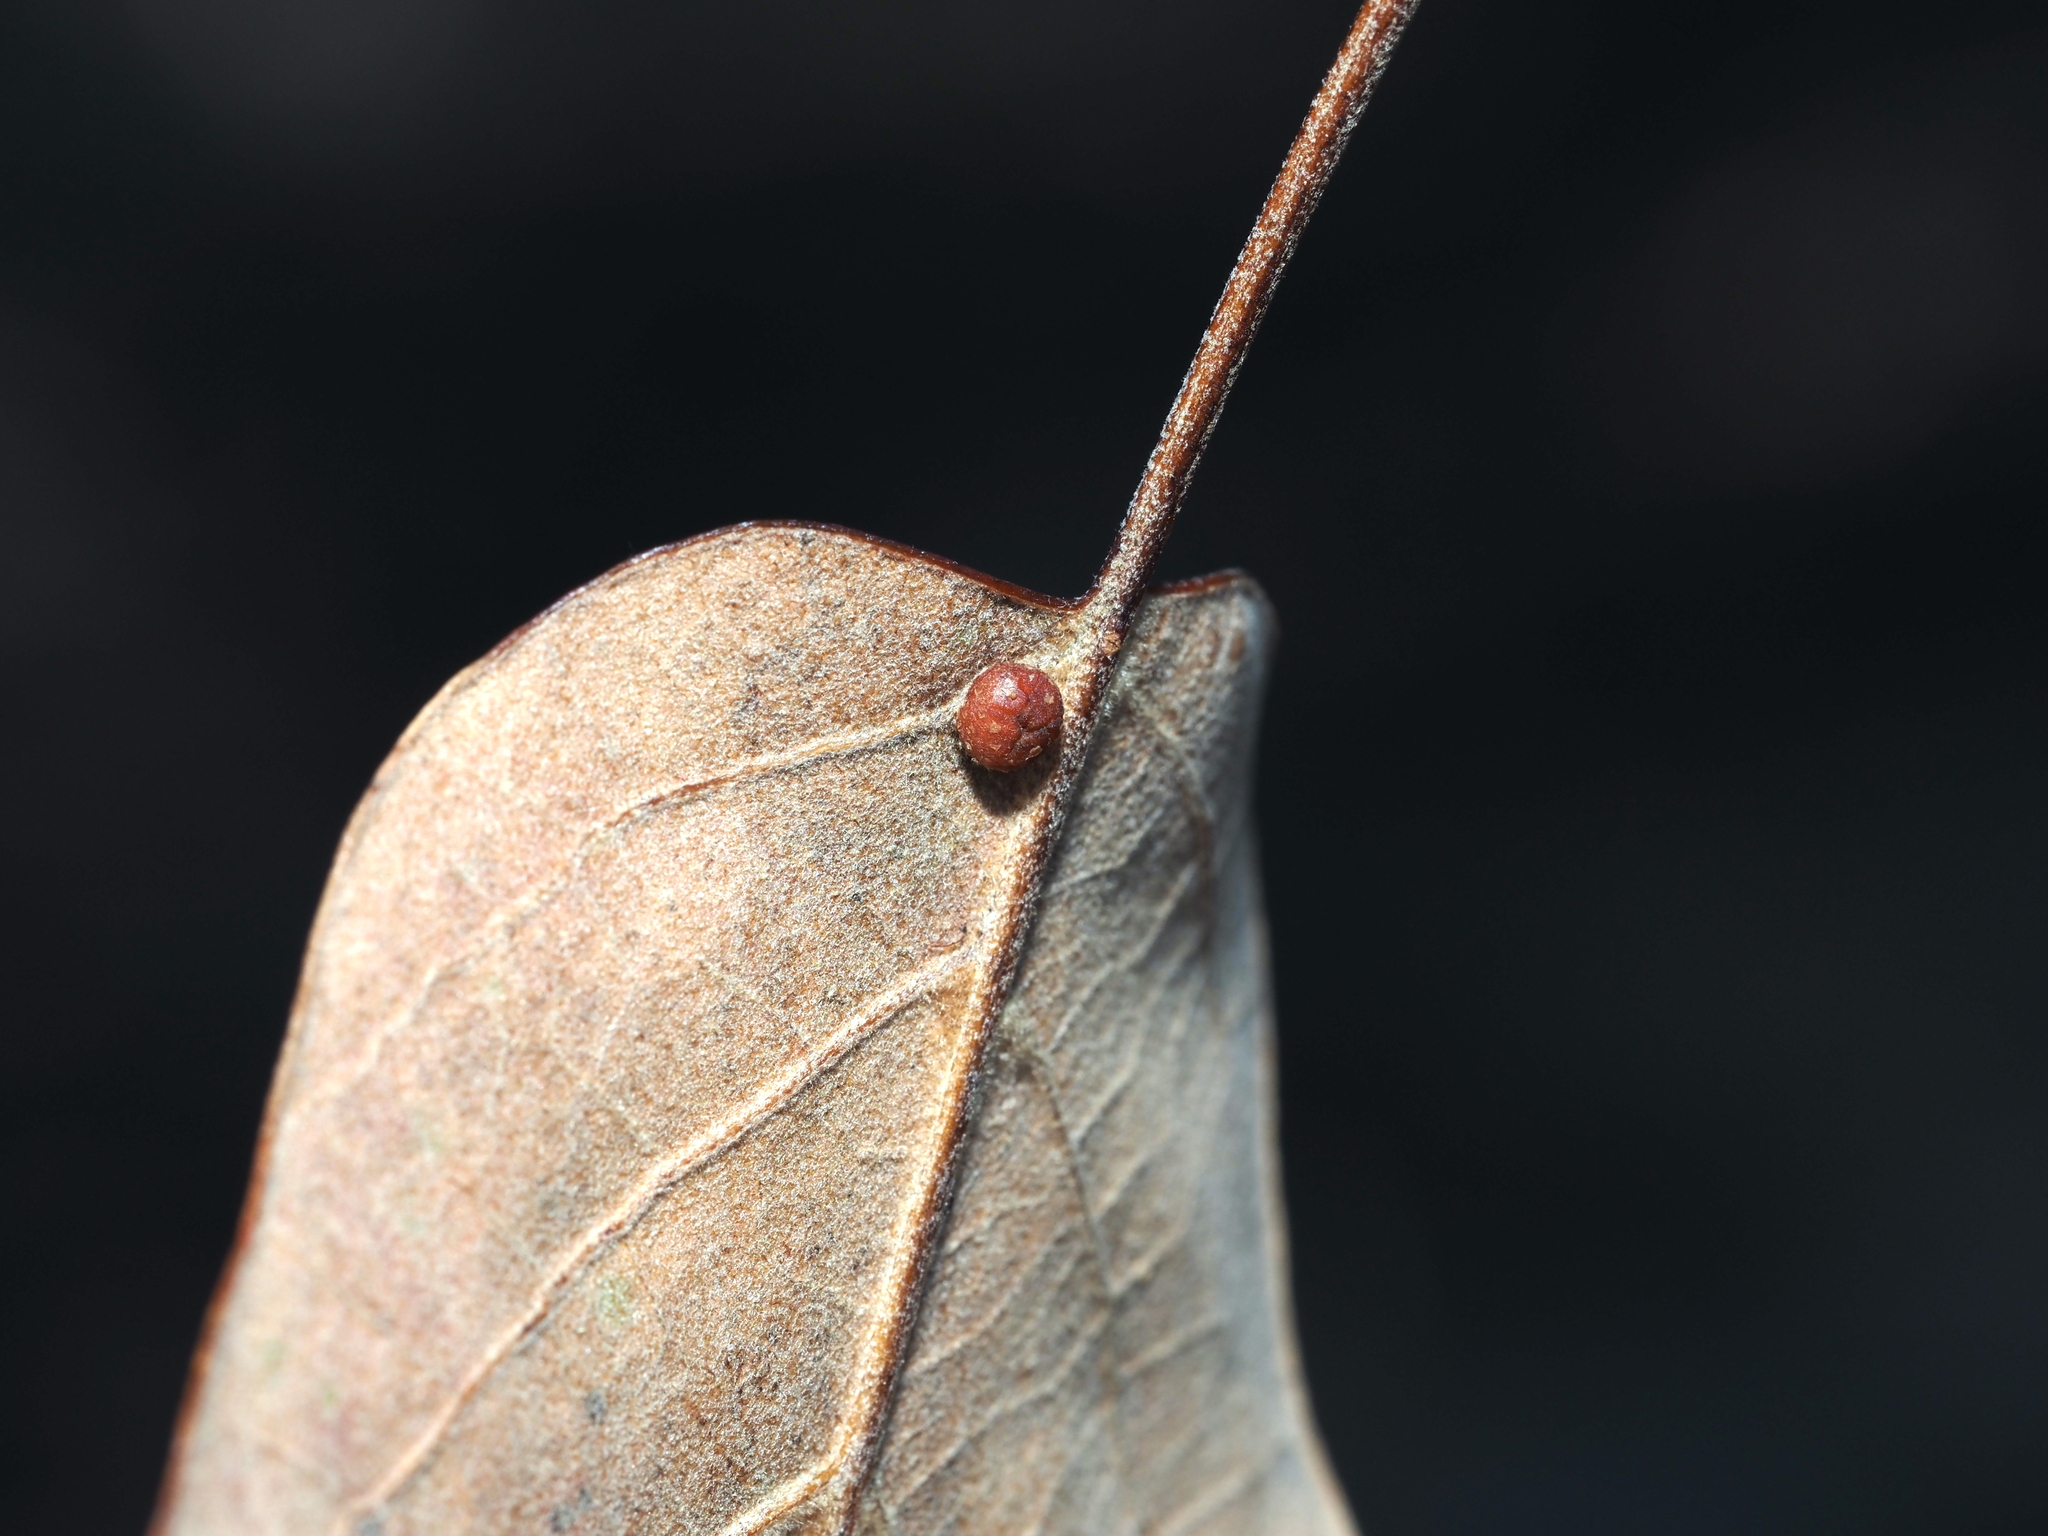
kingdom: Animalia
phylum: Arthropoda
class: Insecta
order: Diptera
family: Cecidomyiidae
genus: Polystepha
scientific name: Polystepha globosa
